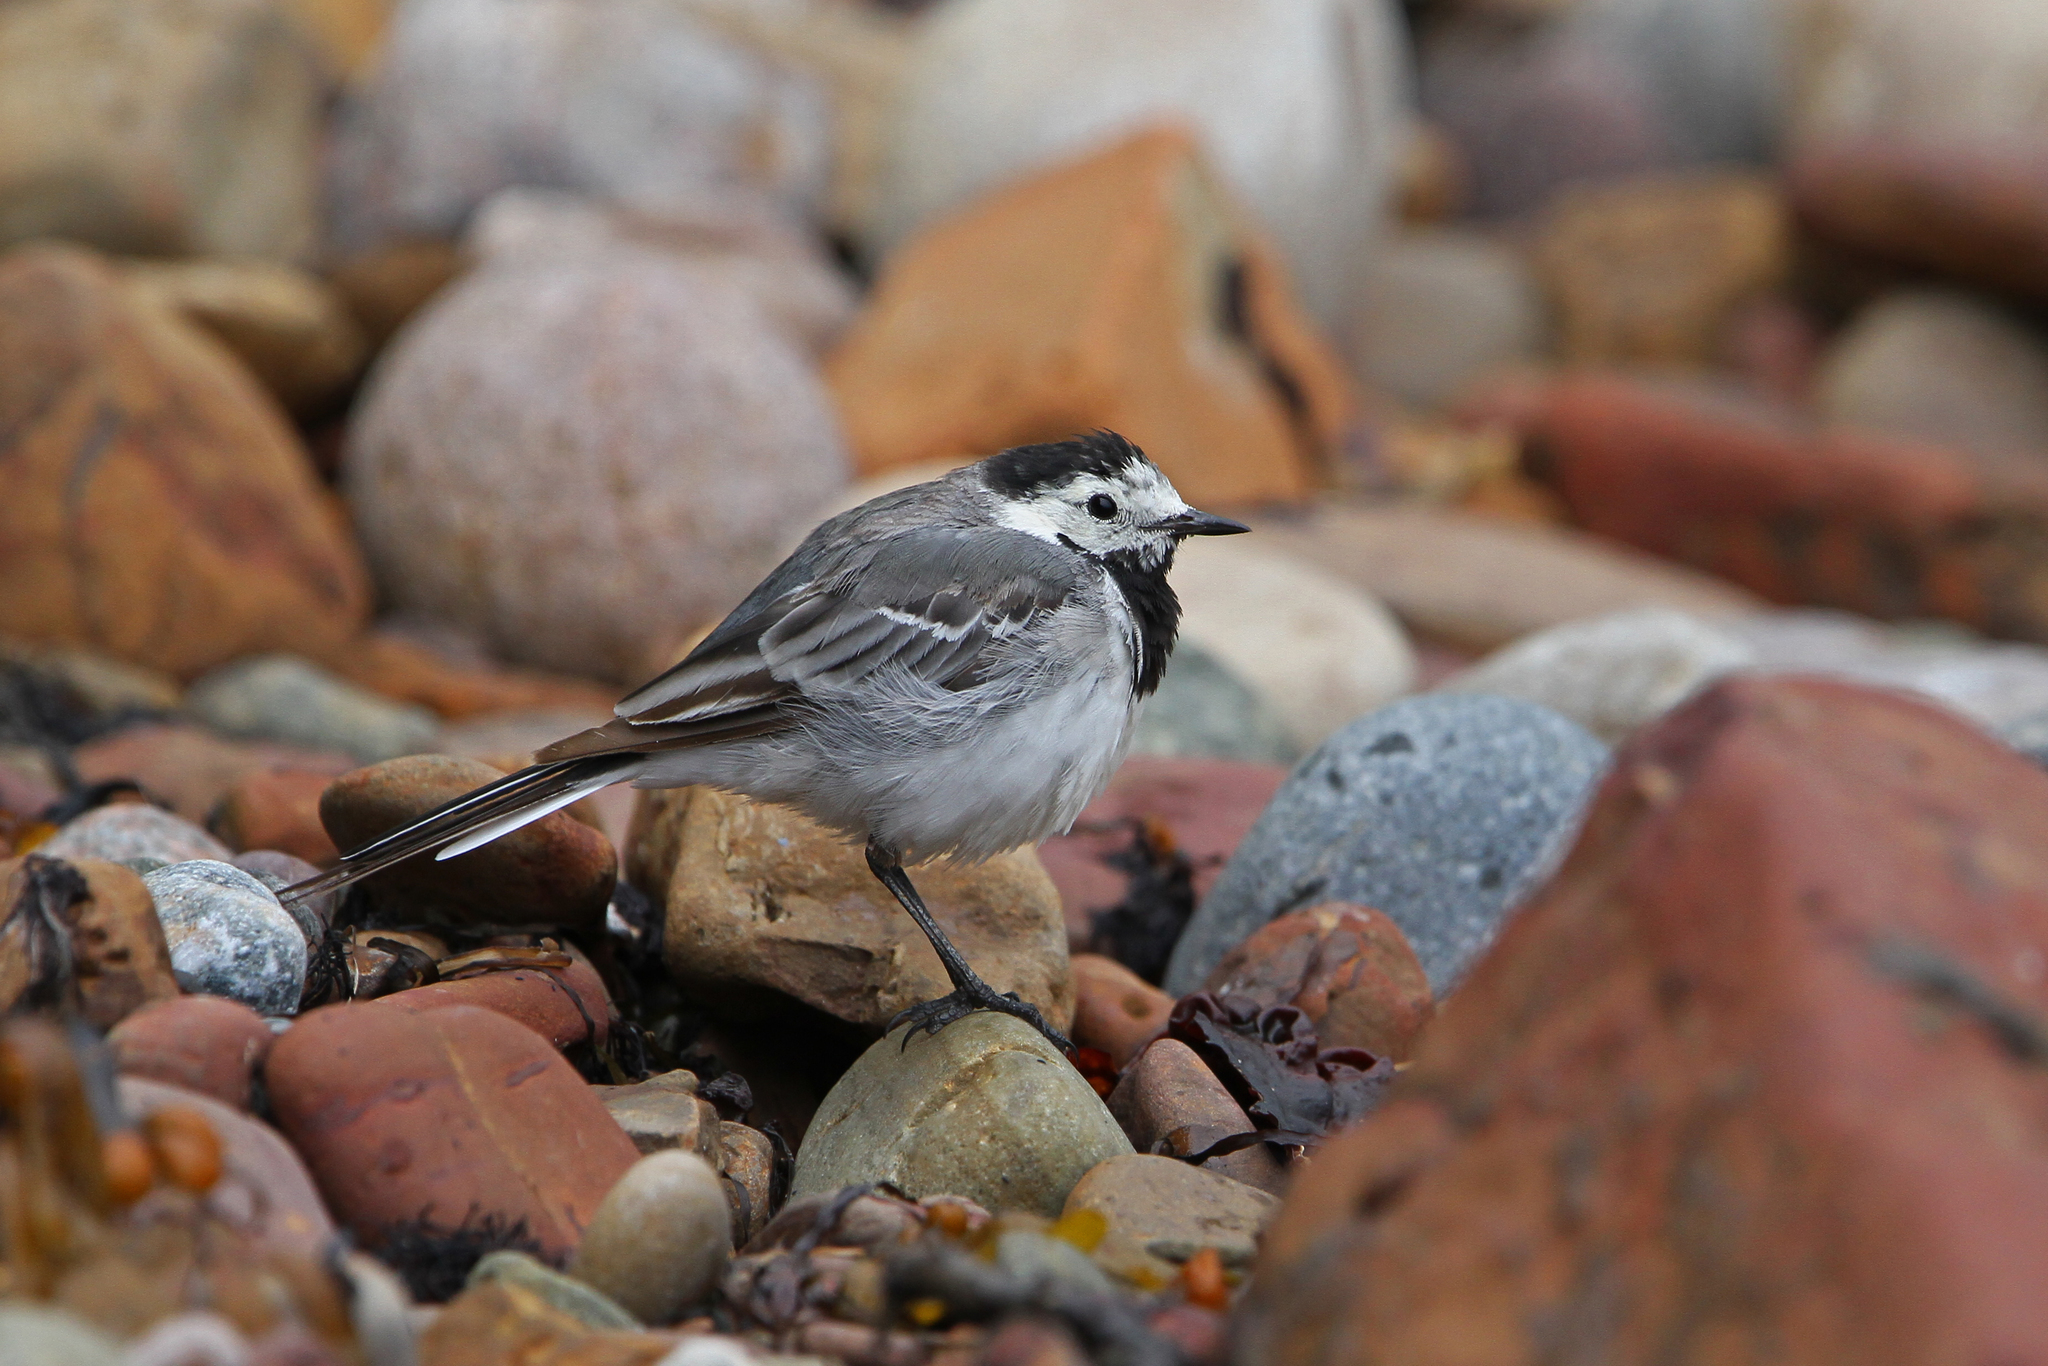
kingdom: Animalia
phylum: Chordata
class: Aves
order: Passeriformes
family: Motacillidae
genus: Motacilla
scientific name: Motacilla alba
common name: White wagtail
